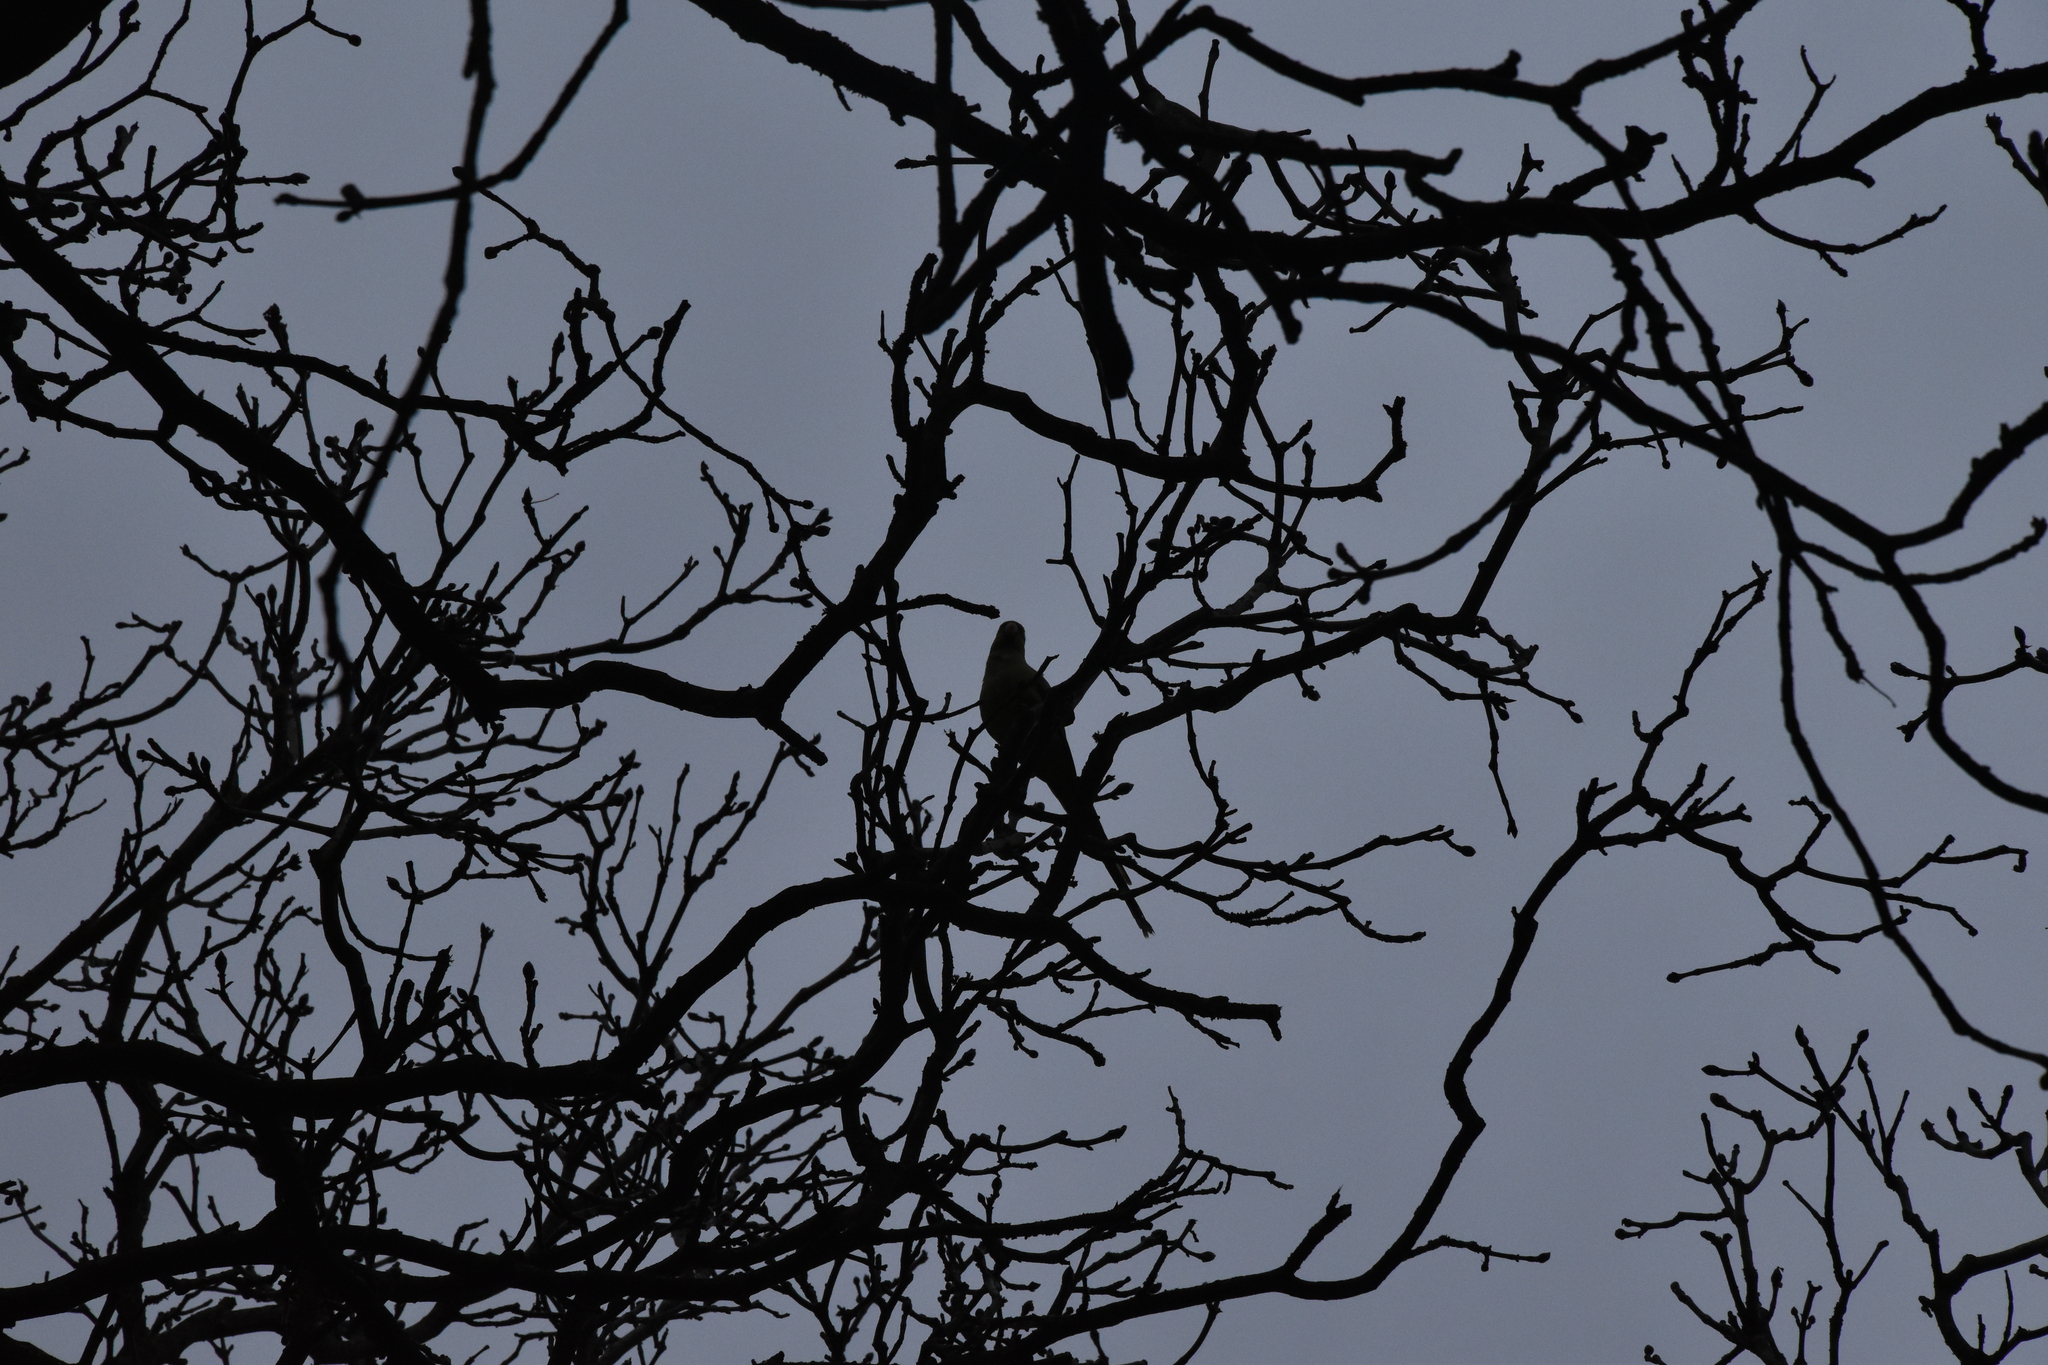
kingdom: Animalia
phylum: Chordata
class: Aves
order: Psittaciformes
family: Psittacidae
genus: Psittacula
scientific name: Psittacula krameri
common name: Rose-ringed parakeet
